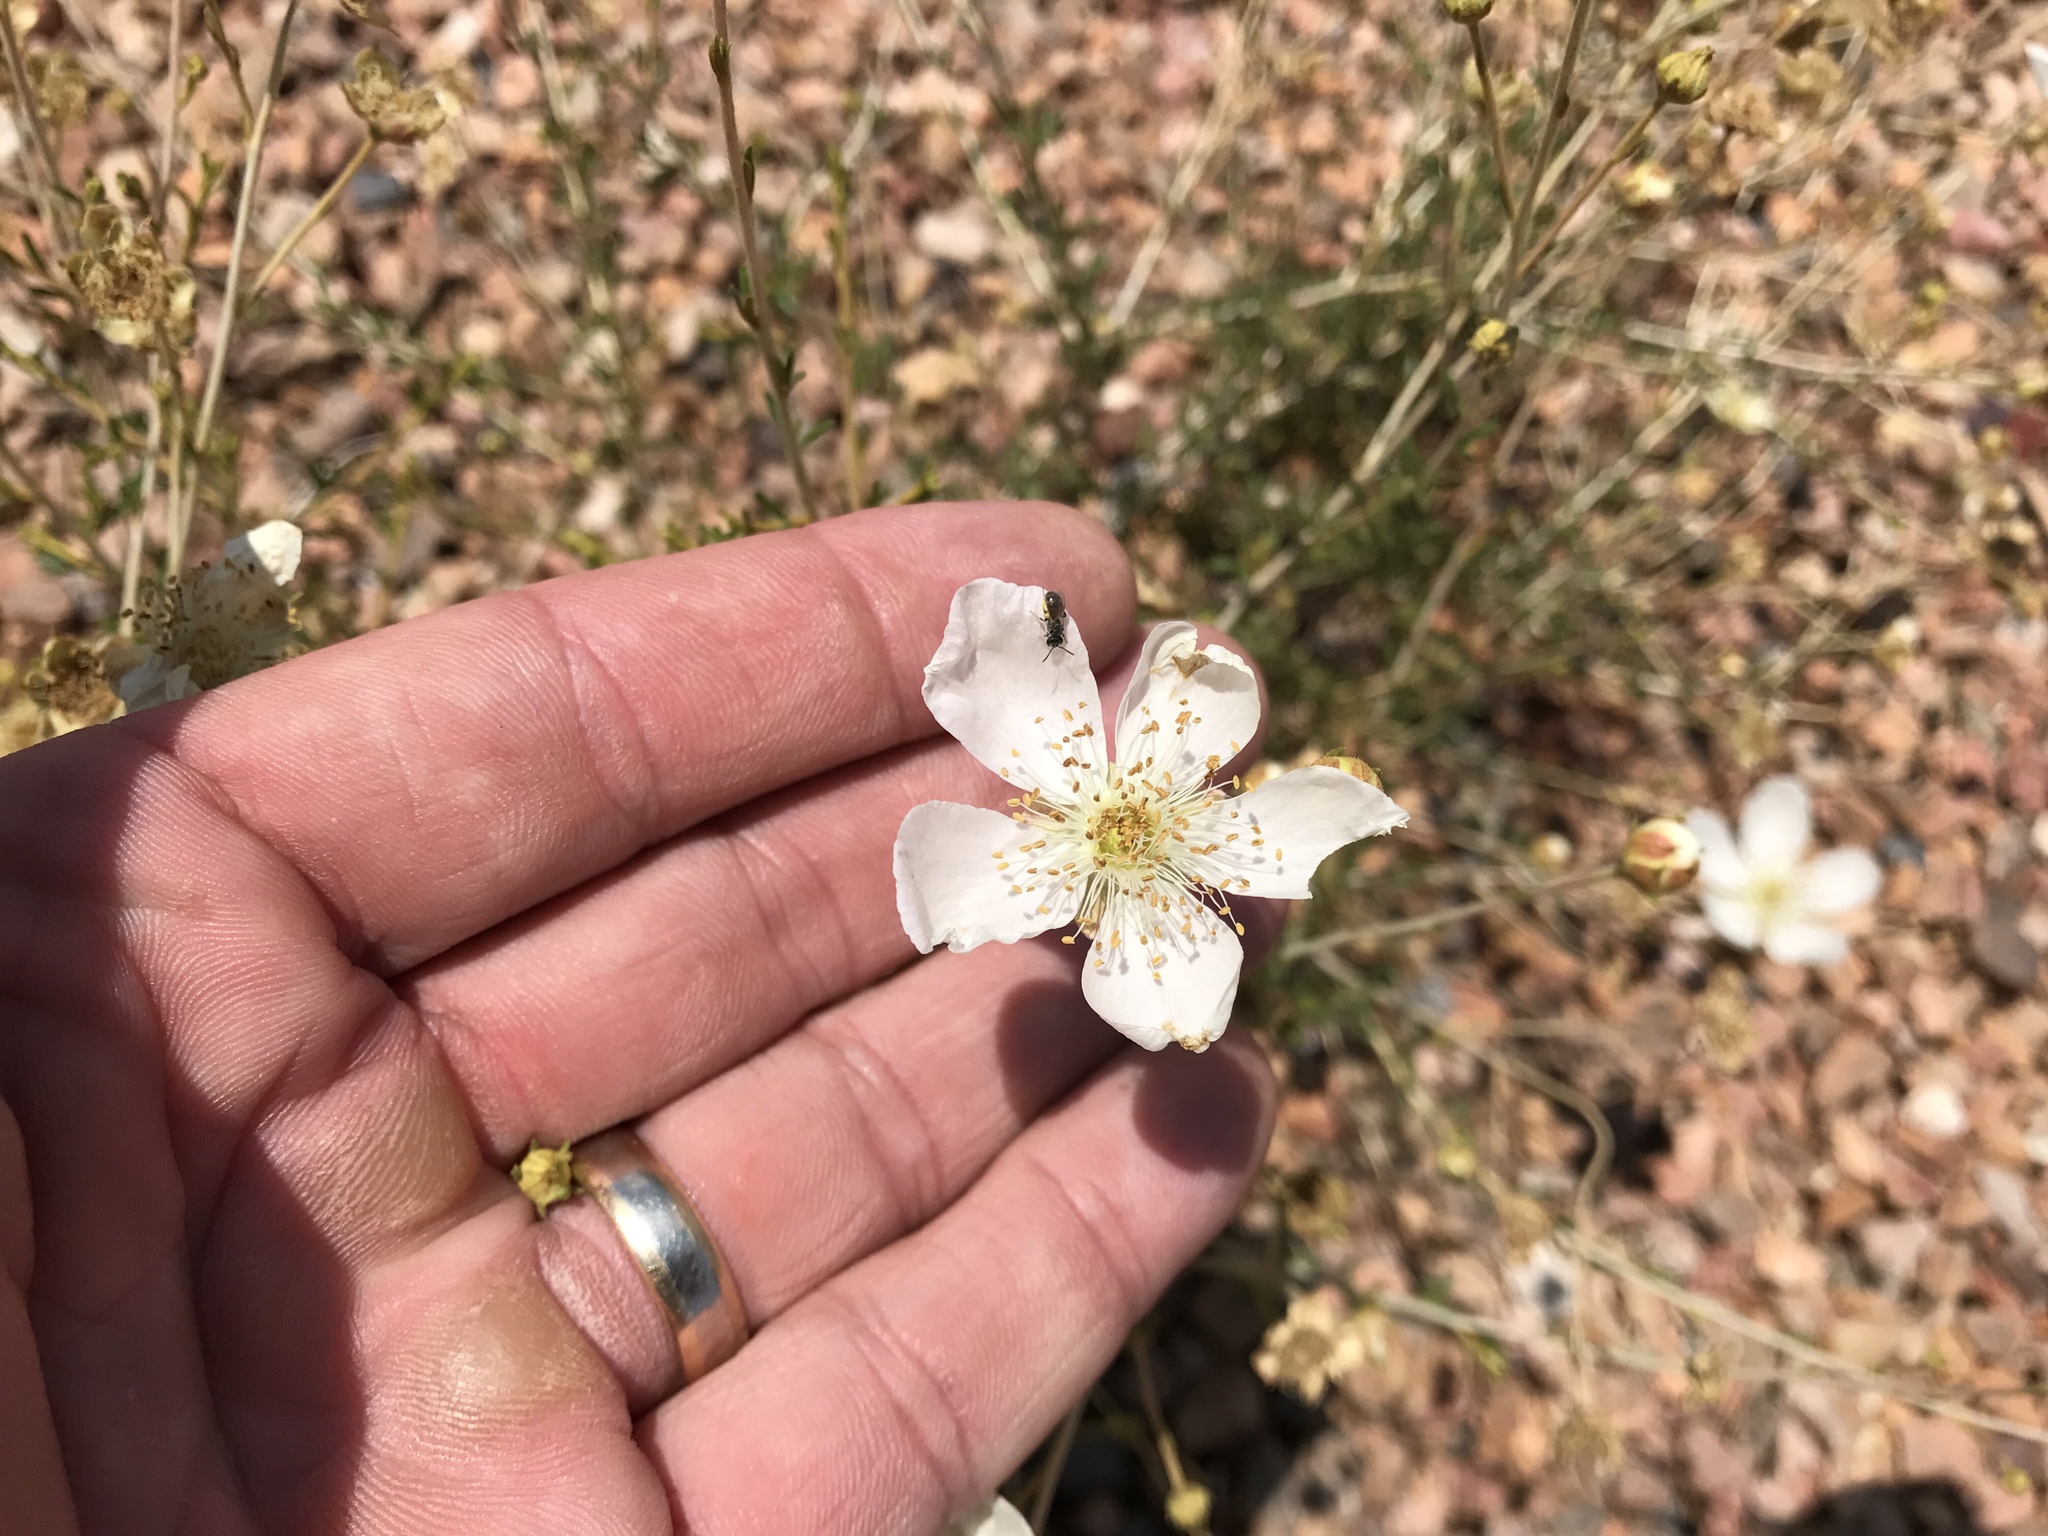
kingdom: Plantae
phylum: Tracheophyta
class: Magnoliopsida
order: Rosales
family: Rosaceae
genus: Fallugia
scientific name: Fallugia paradoxa
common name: Apache-plume
